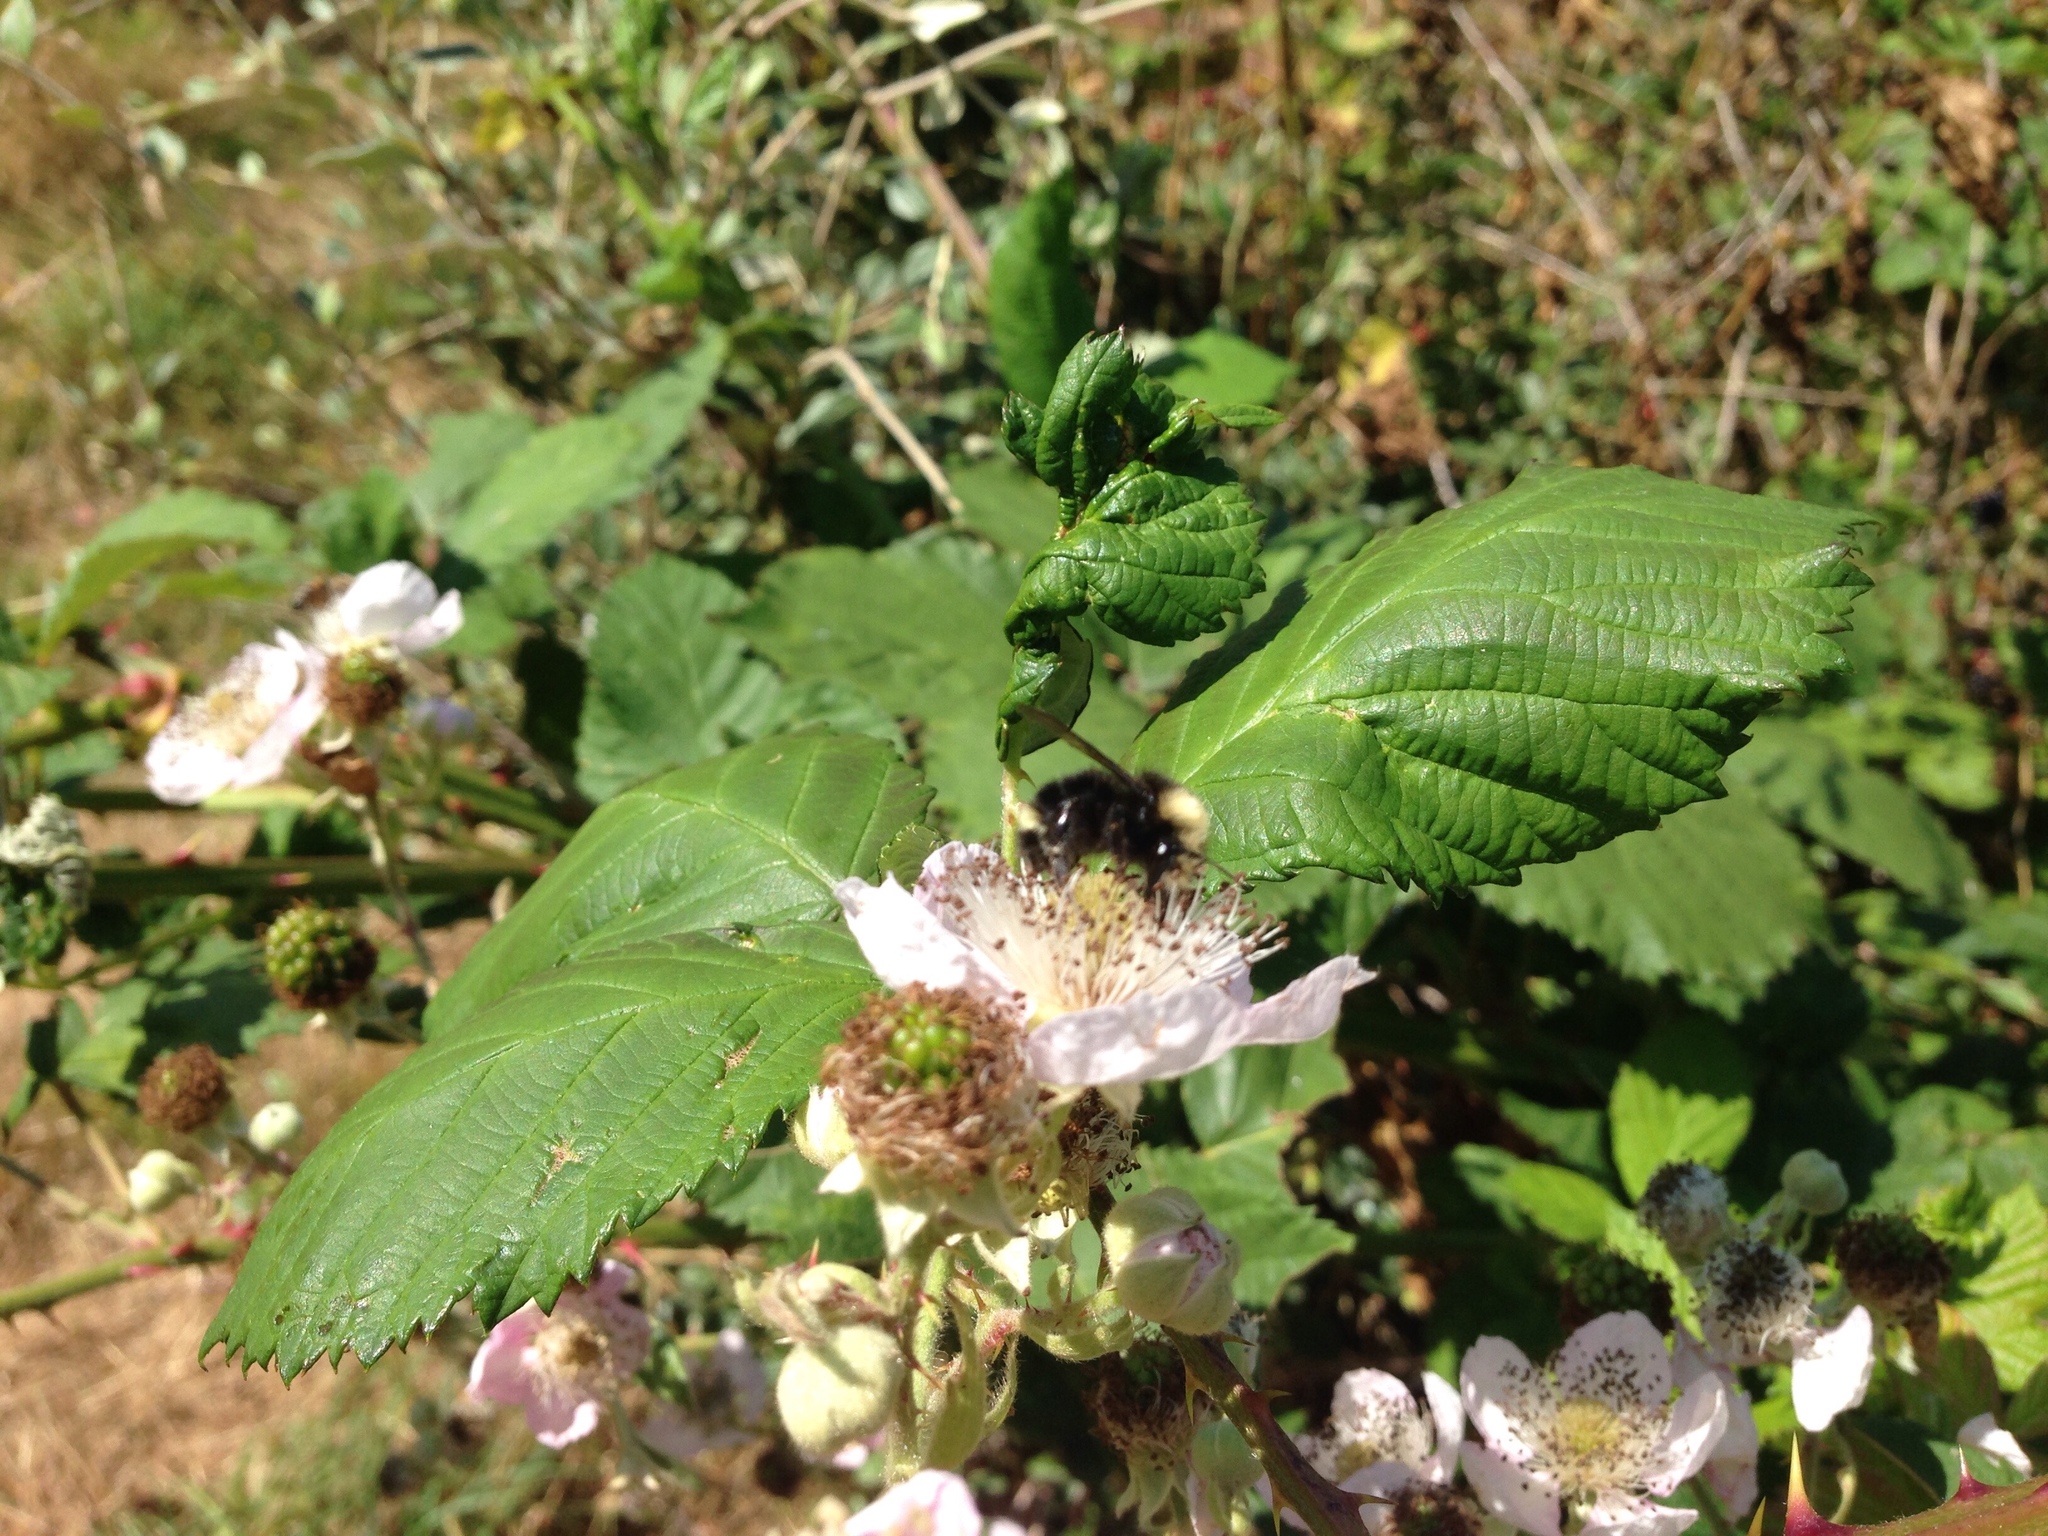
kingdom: Animalia
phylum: Arthropoda
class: Insecta
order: Hymenoptera
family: Apidae
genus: Bombus
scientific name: Bombus vosnesenskii
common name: Vosnesensky bumble bee
